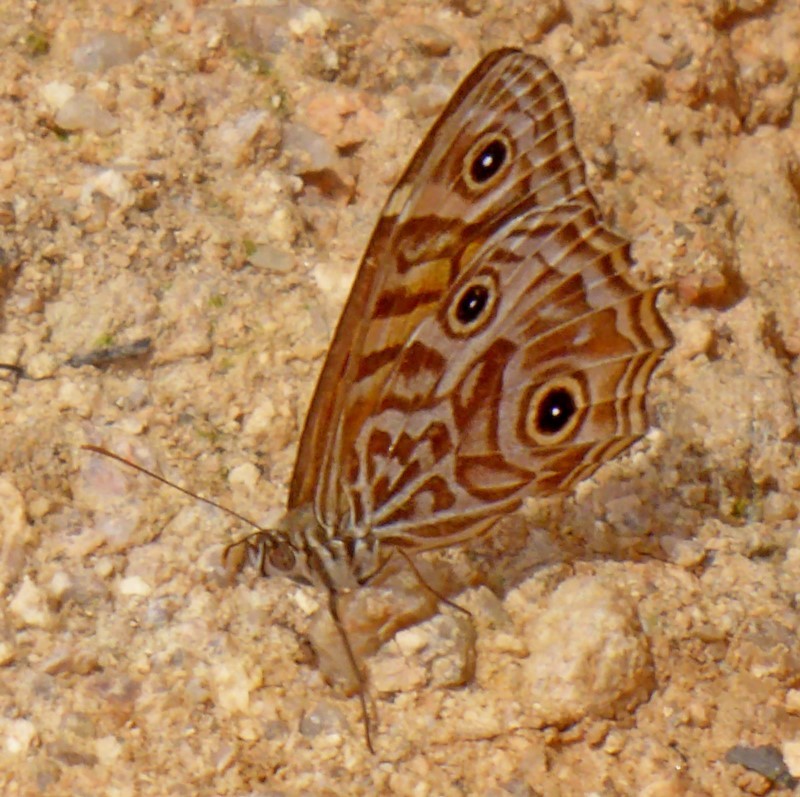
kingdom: Animalia
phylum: Arthropoda
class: Insecta
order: Lepidoptera
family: Nymphalidae
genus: Geitoneura
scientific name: Geitoneura acantha
